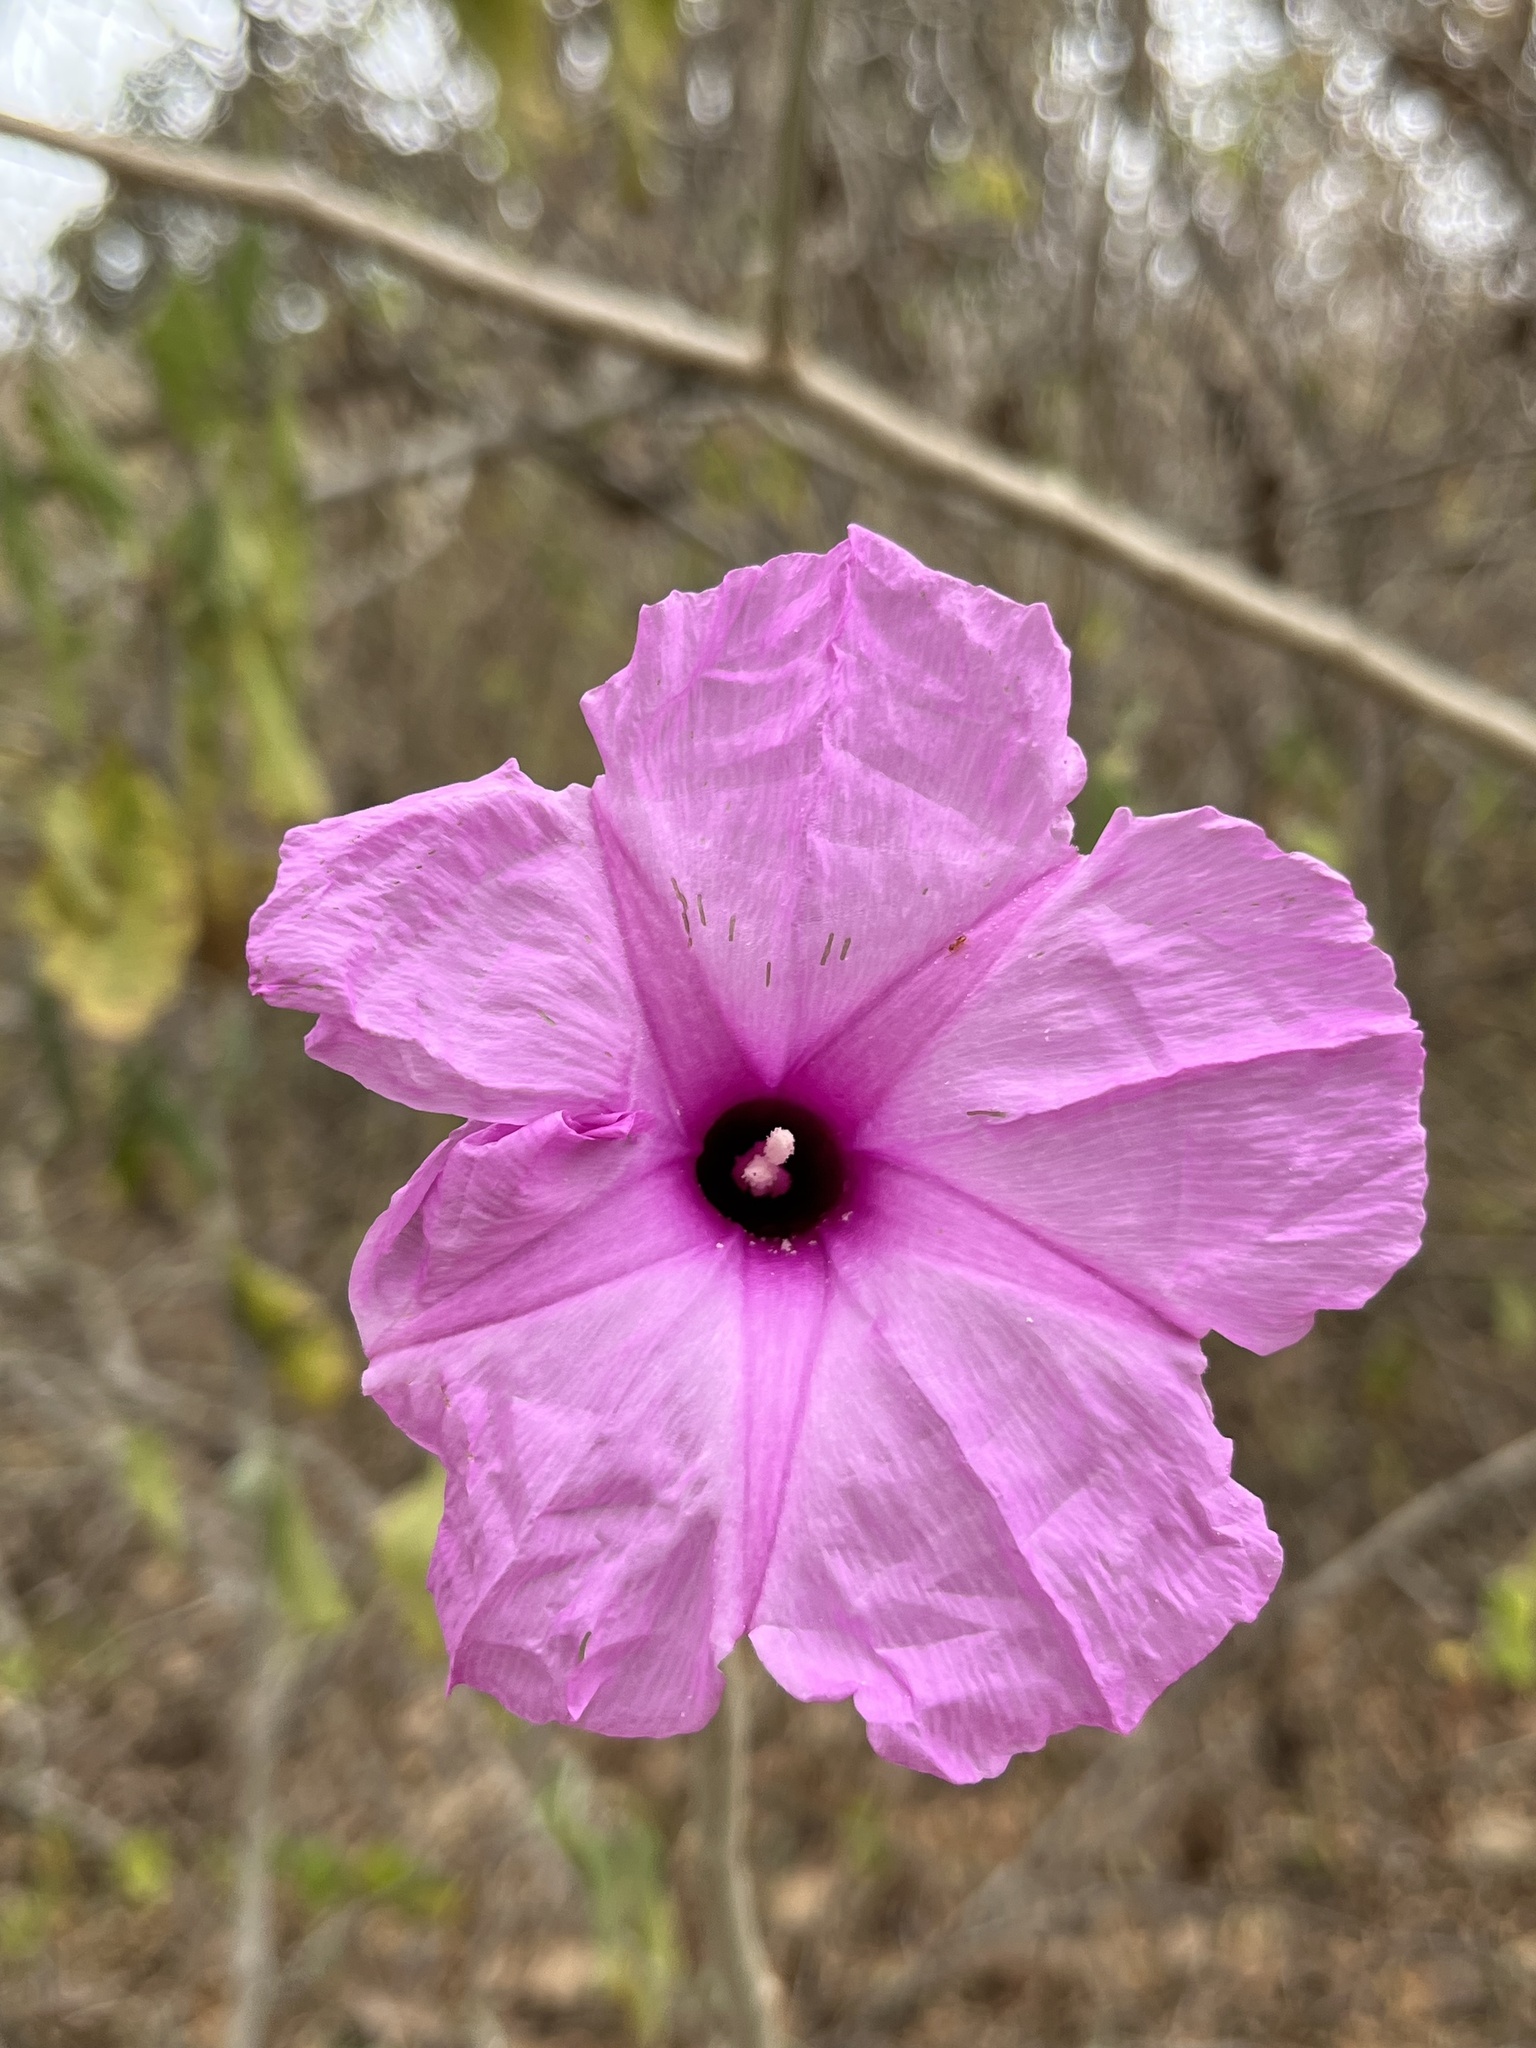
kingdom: Plantae
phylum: Tracheophyta
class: Magnoliopsida
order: Solanales
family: Convolvulaceae
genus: Ipomoea
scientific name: Ipomoea carnea
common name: Morning-glory
